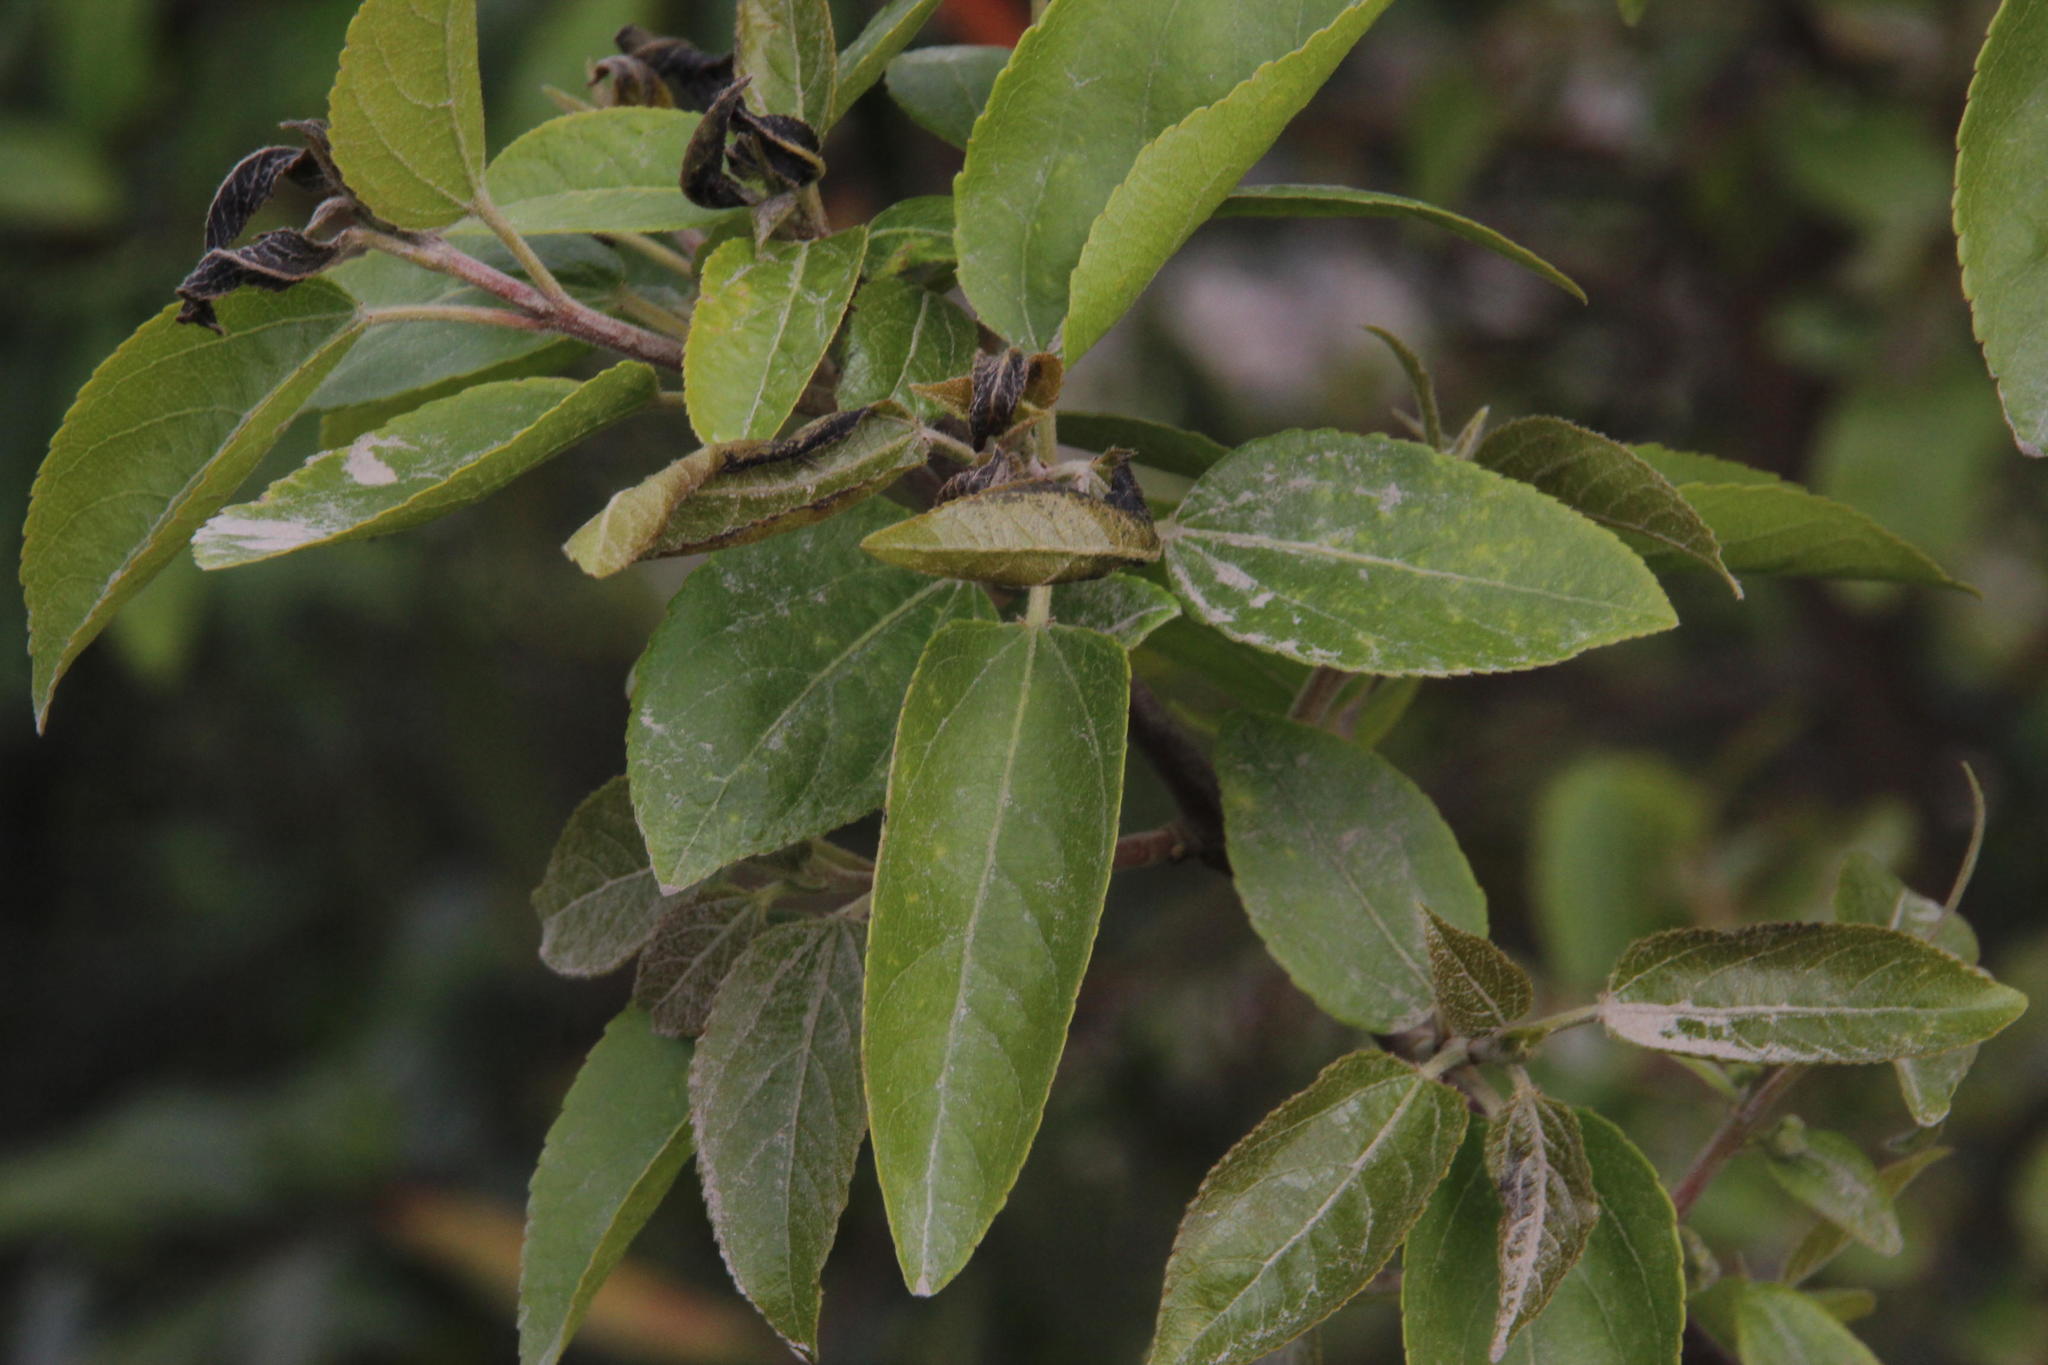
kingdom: Plantae
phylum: Tracheophyta
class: Magnoliopsida
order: Oxalidales
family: Elaeocarpaceae
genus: Aristotelia
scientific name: Aristotelia chilensis
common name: Maquei
